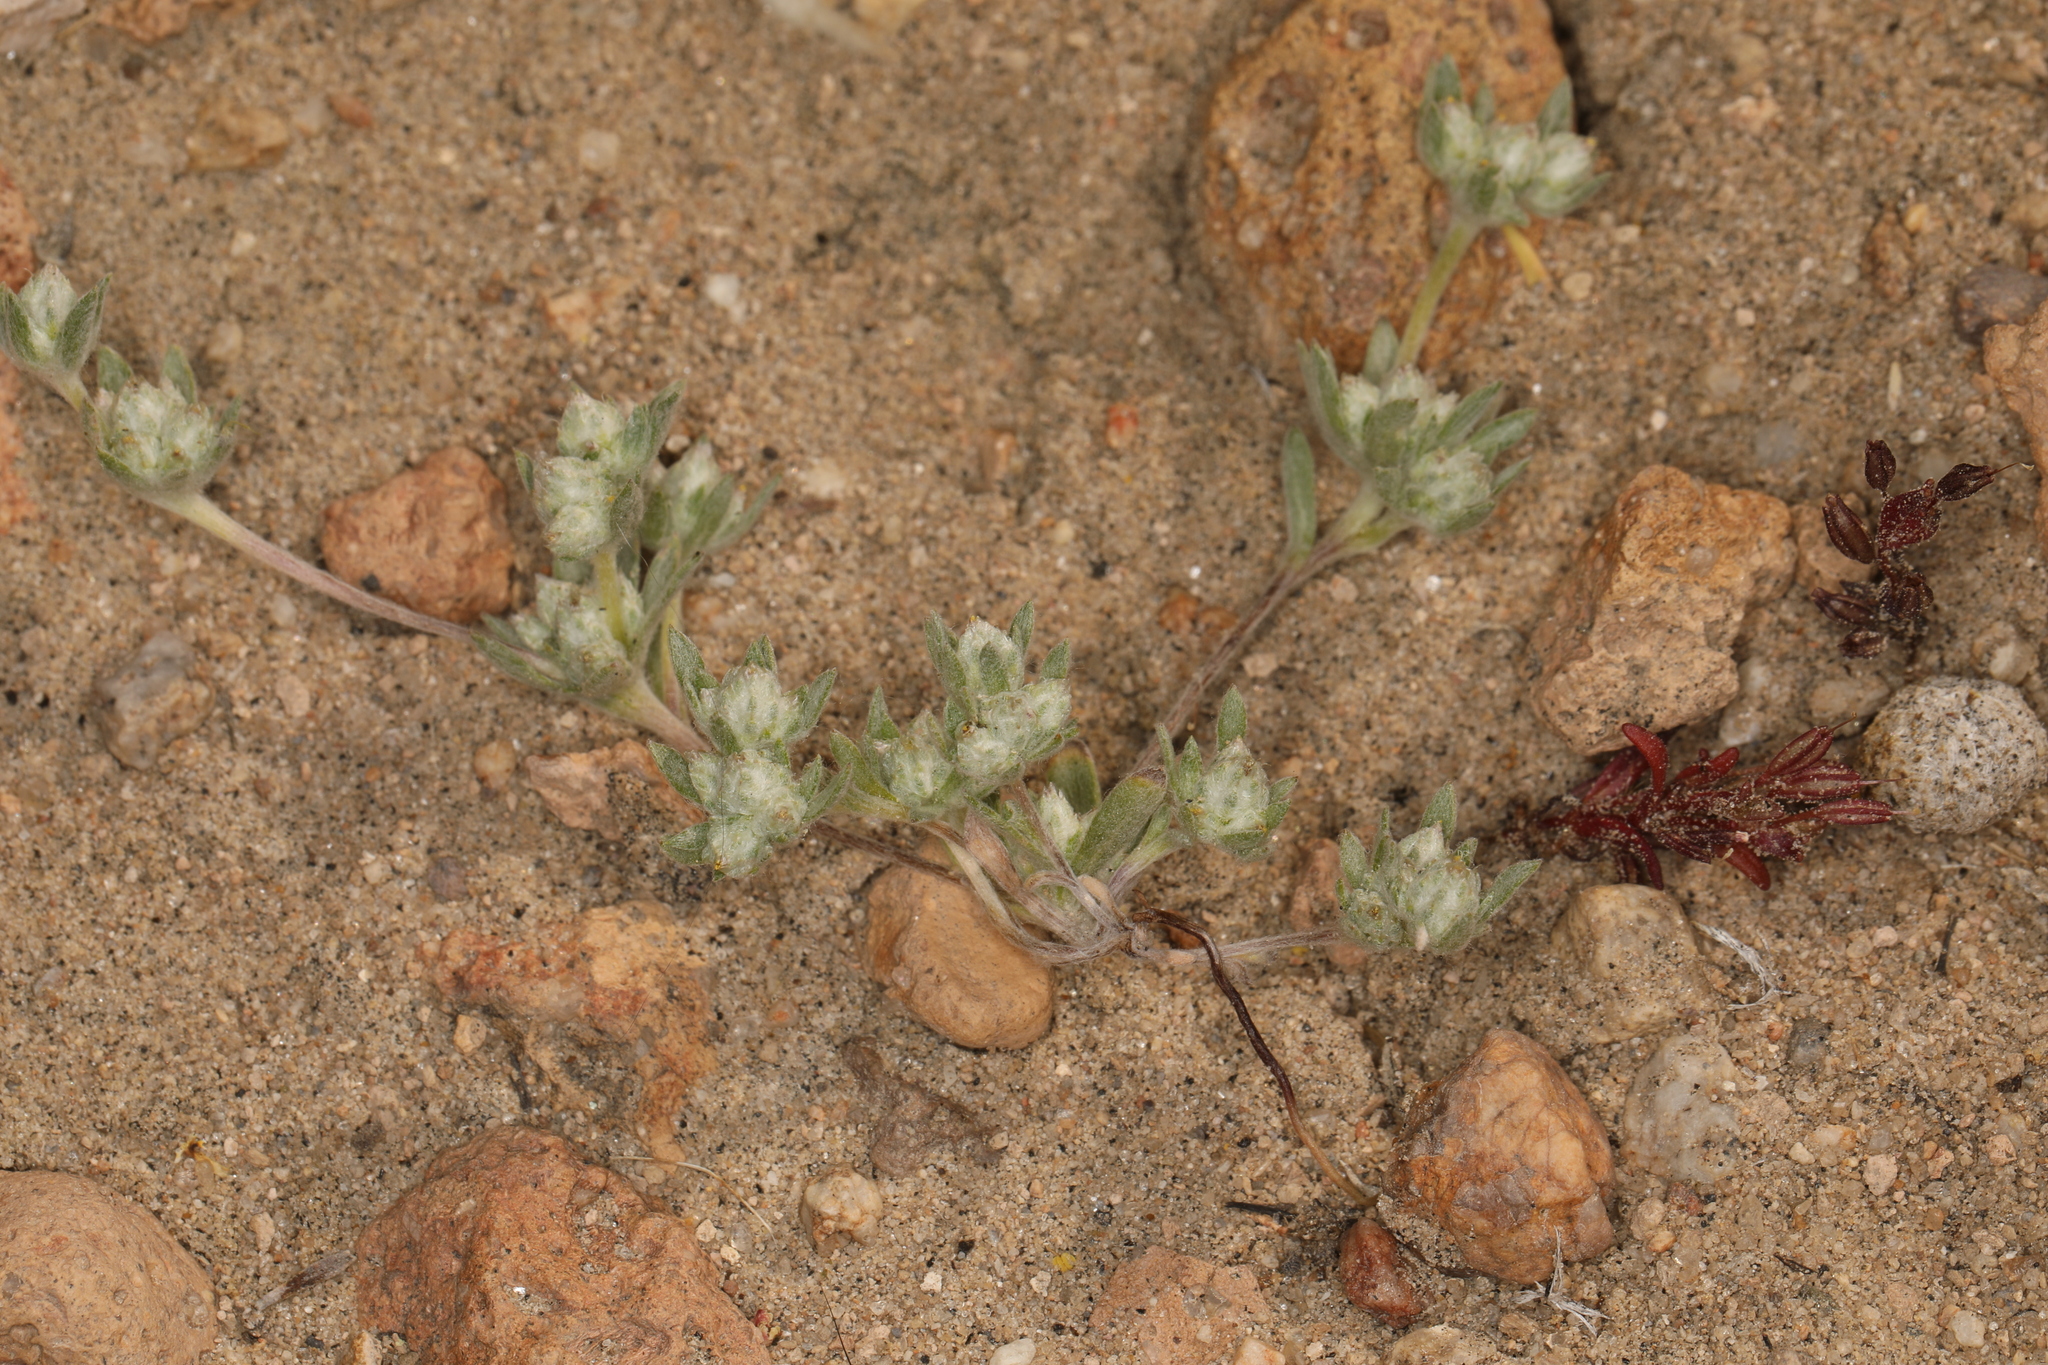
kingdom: Plantae
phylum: Tracheophyta
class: Magnoliopsida
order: Asterales
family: Asteraceae
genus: Stylocline
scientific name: Stylocline psilocarphoides
